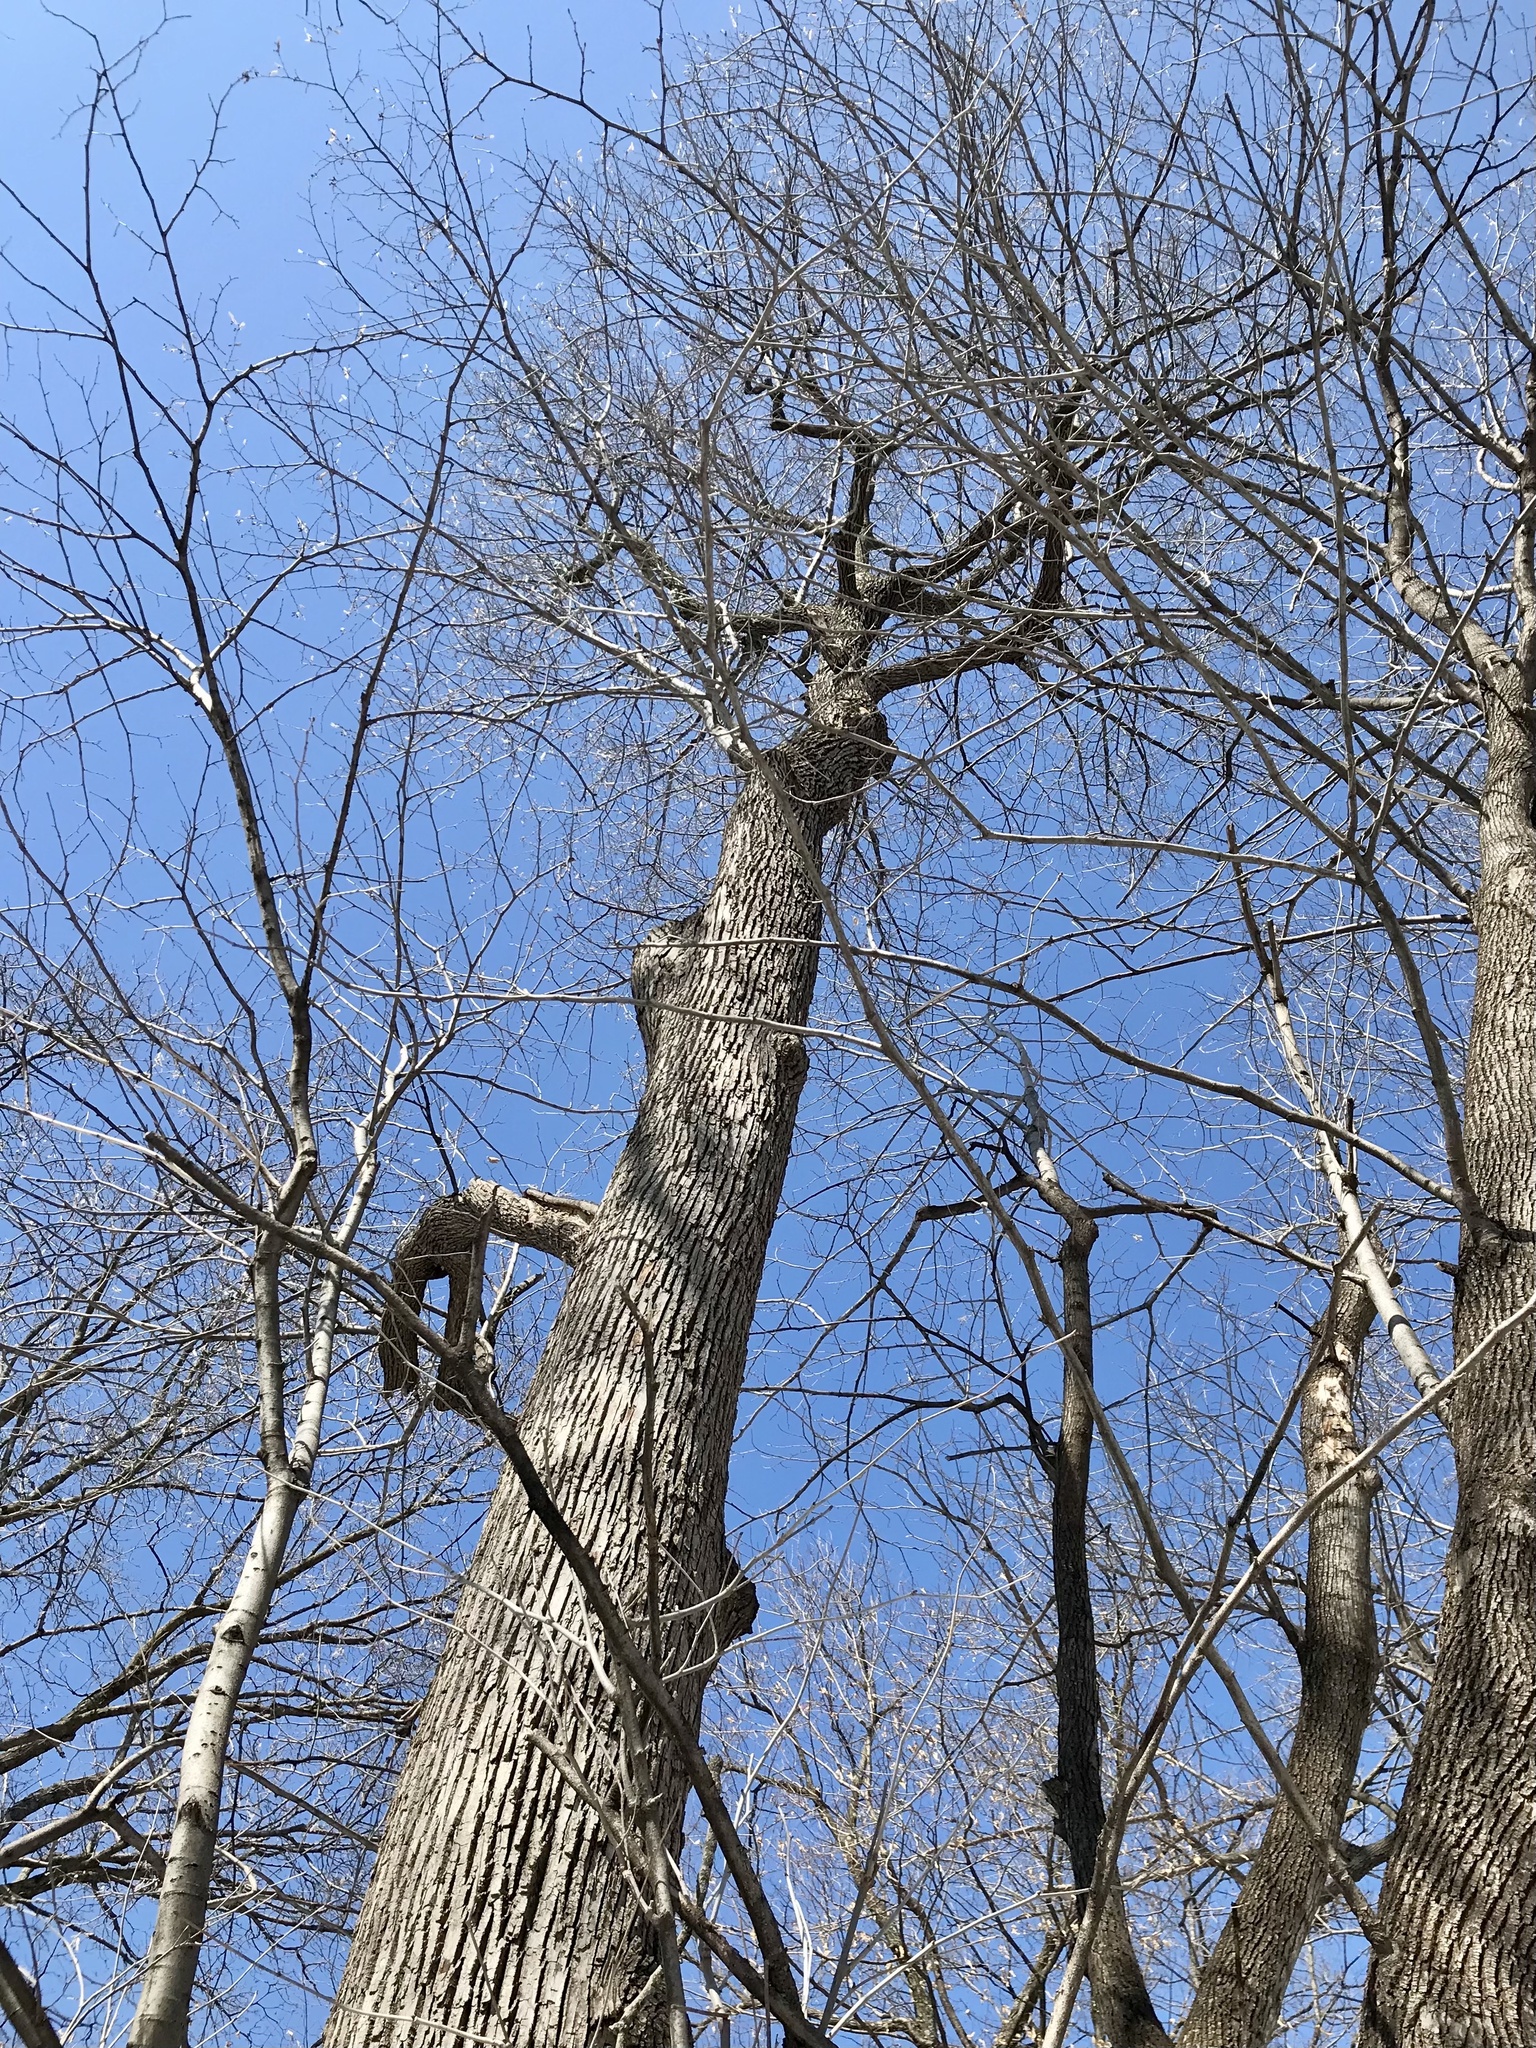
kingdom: Plantae
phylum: Tracheophyta
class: Magnoliopsida
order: Malvales
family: Malvaceae
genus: Tilia
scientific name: Tilia americana
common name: Basswood
